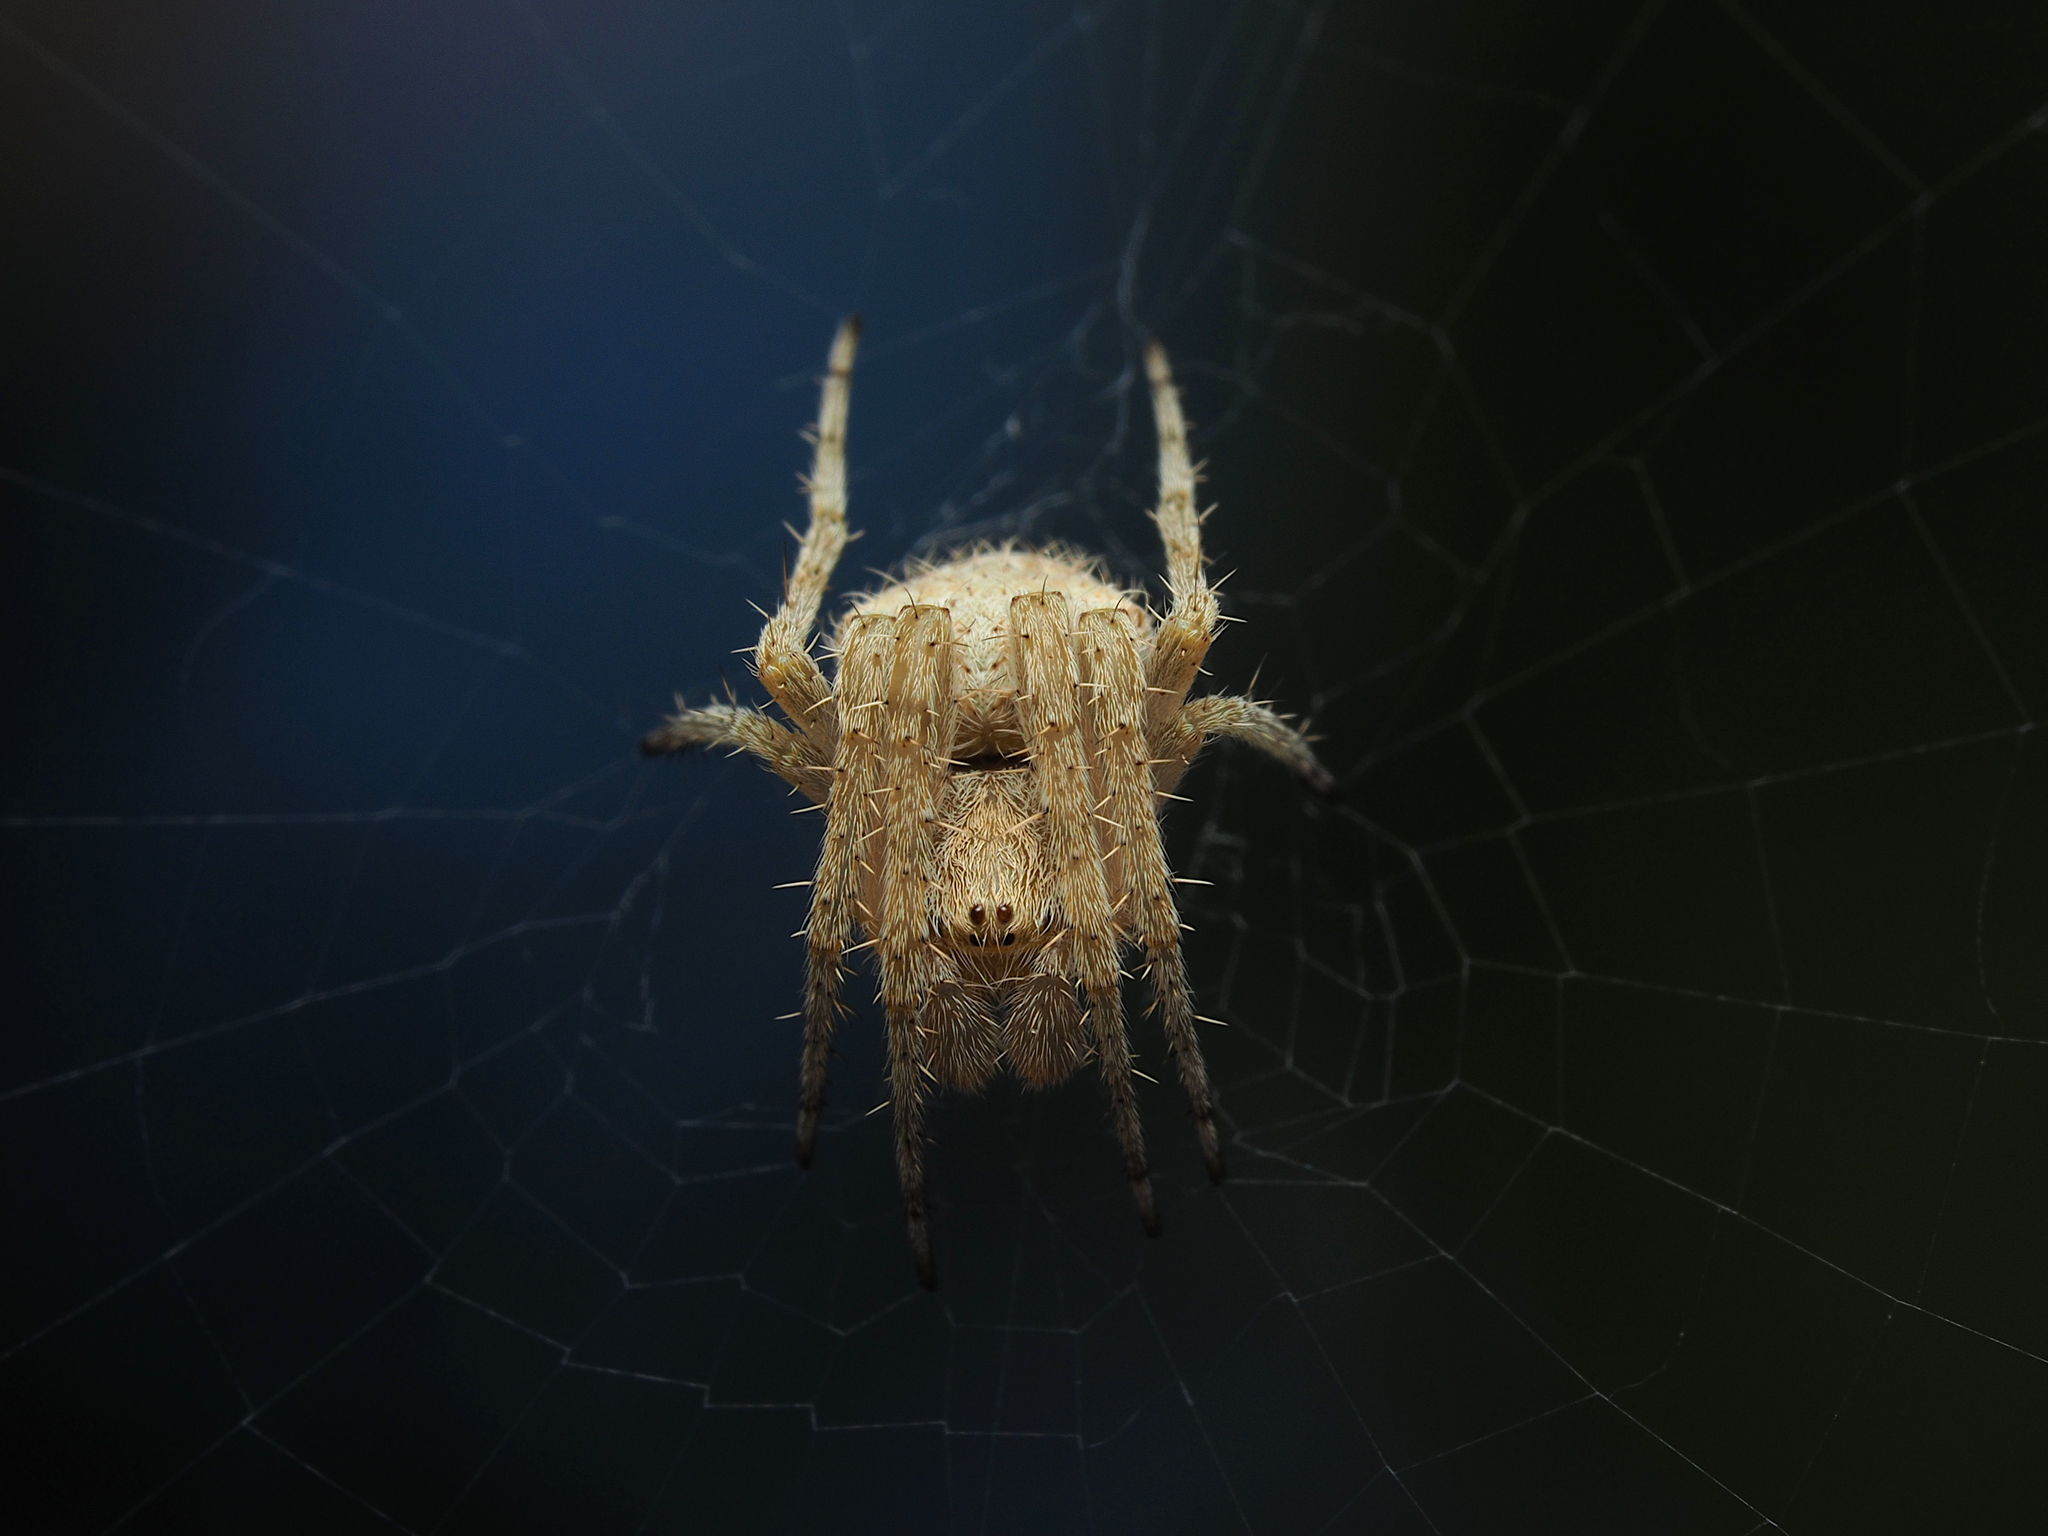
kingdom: Animalia
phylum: Arthropoda
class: Arachnida
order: Araneae
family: Araneidae
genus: Neoscona
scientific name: Neoscona subfusca
